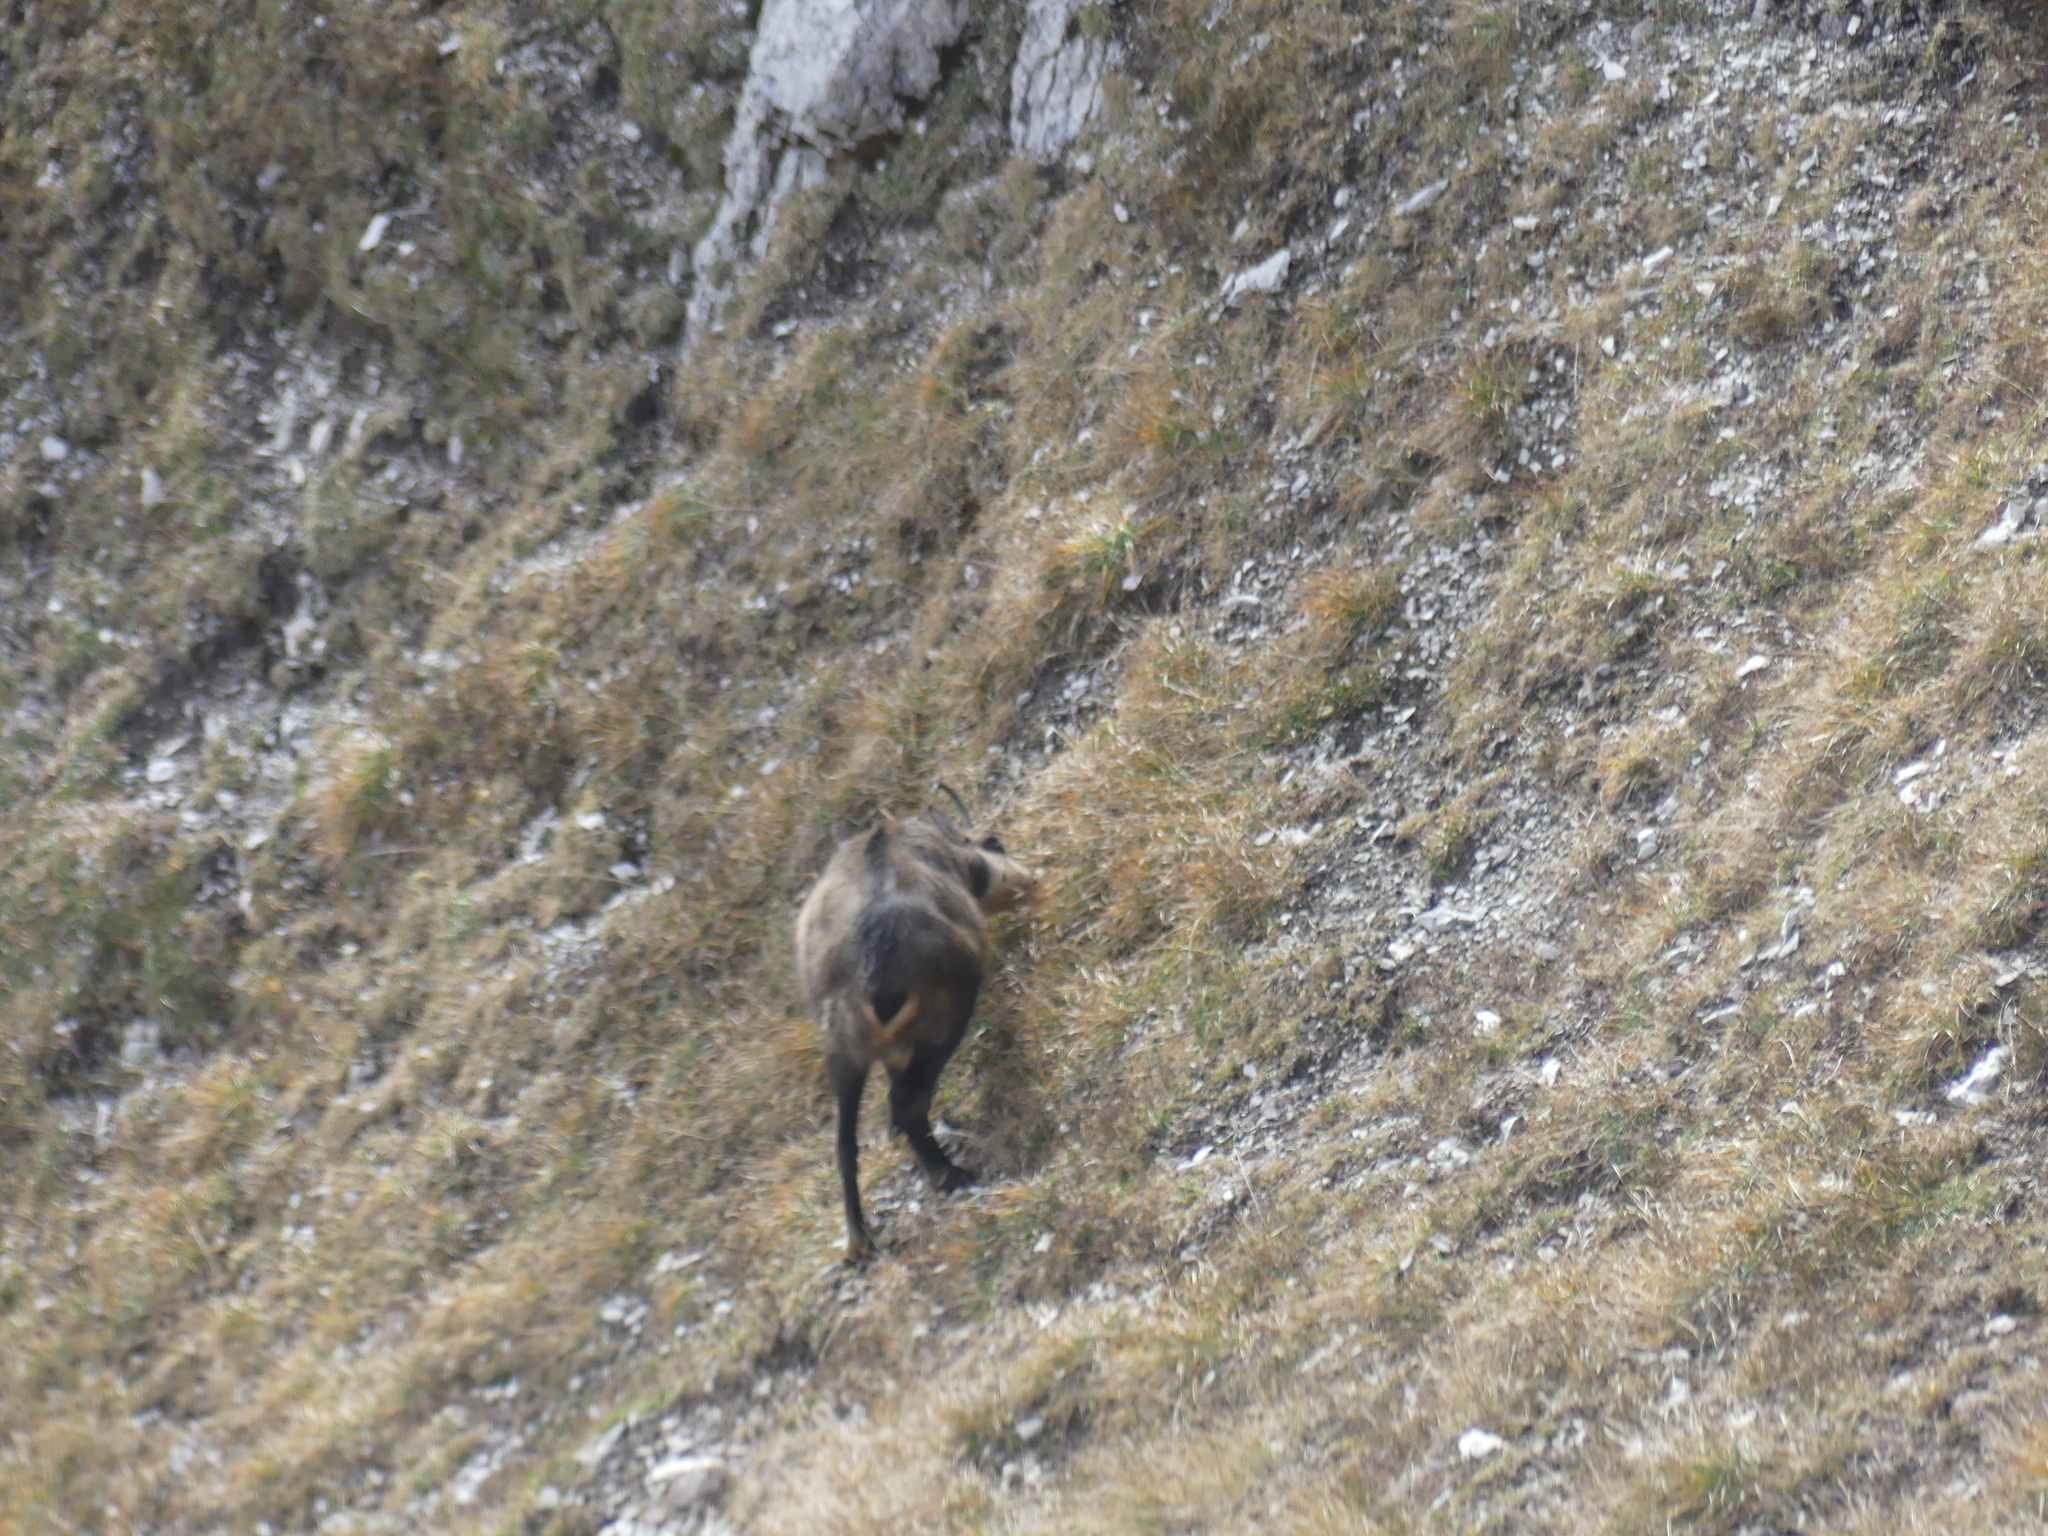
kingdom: Animalia
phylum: Chordata
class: Mammalia
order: Artiodactyla
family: Bovidae
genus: Rupicapra
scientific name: Rupicapra rupicapra
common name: Chamois
